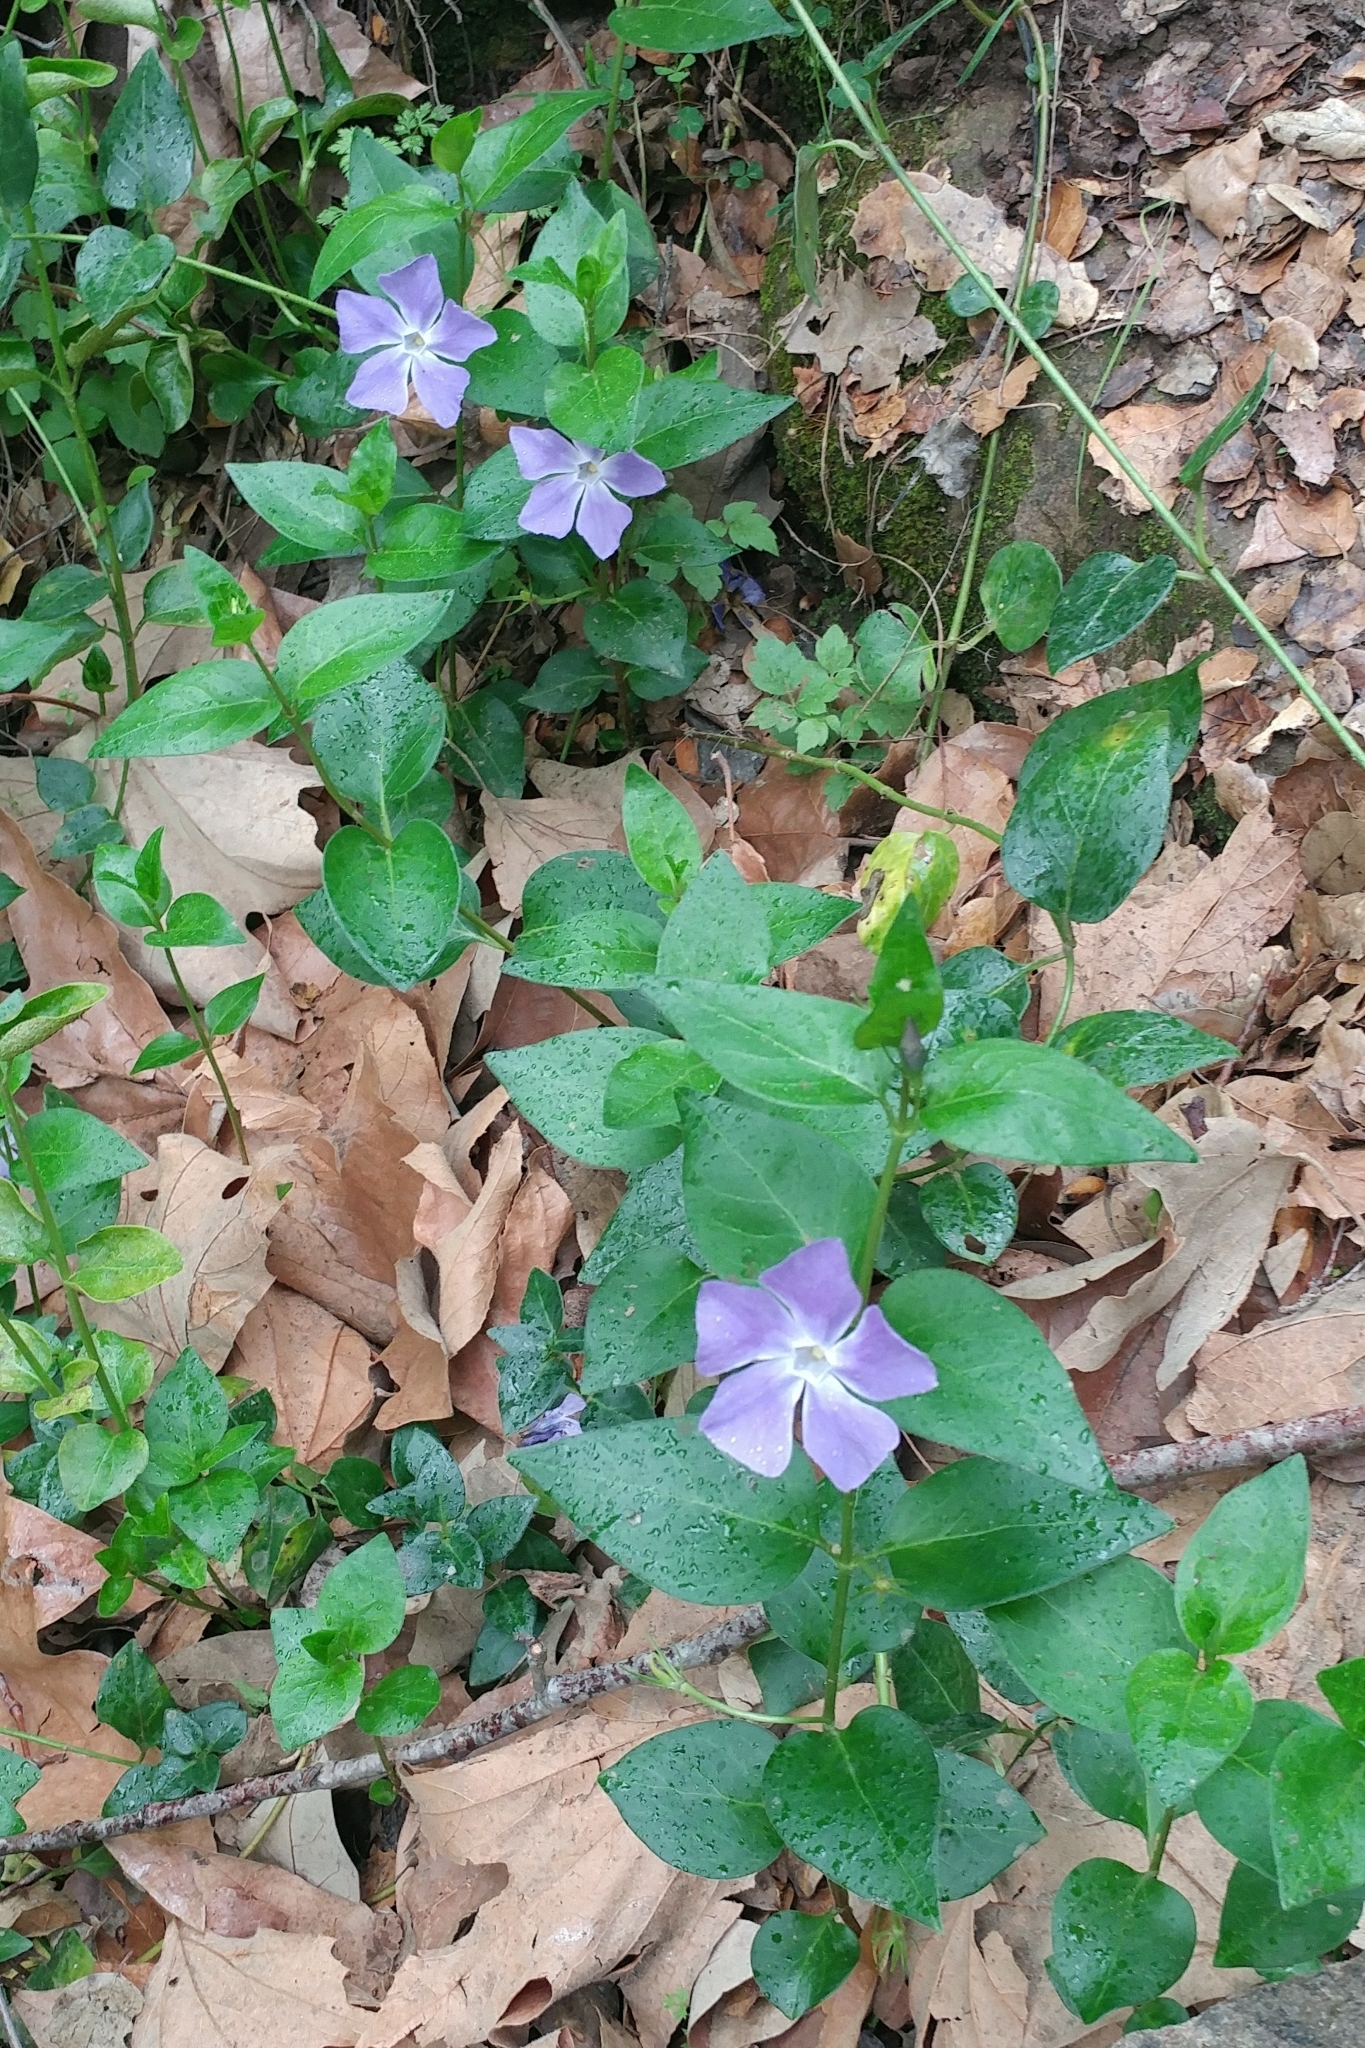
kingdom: Plantae
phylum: Tracheophyta
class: Magnoliopsida
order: Gentianales
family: Apocynaceae
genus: Vinca
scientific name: Vinca major
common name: Greater periwinkle
